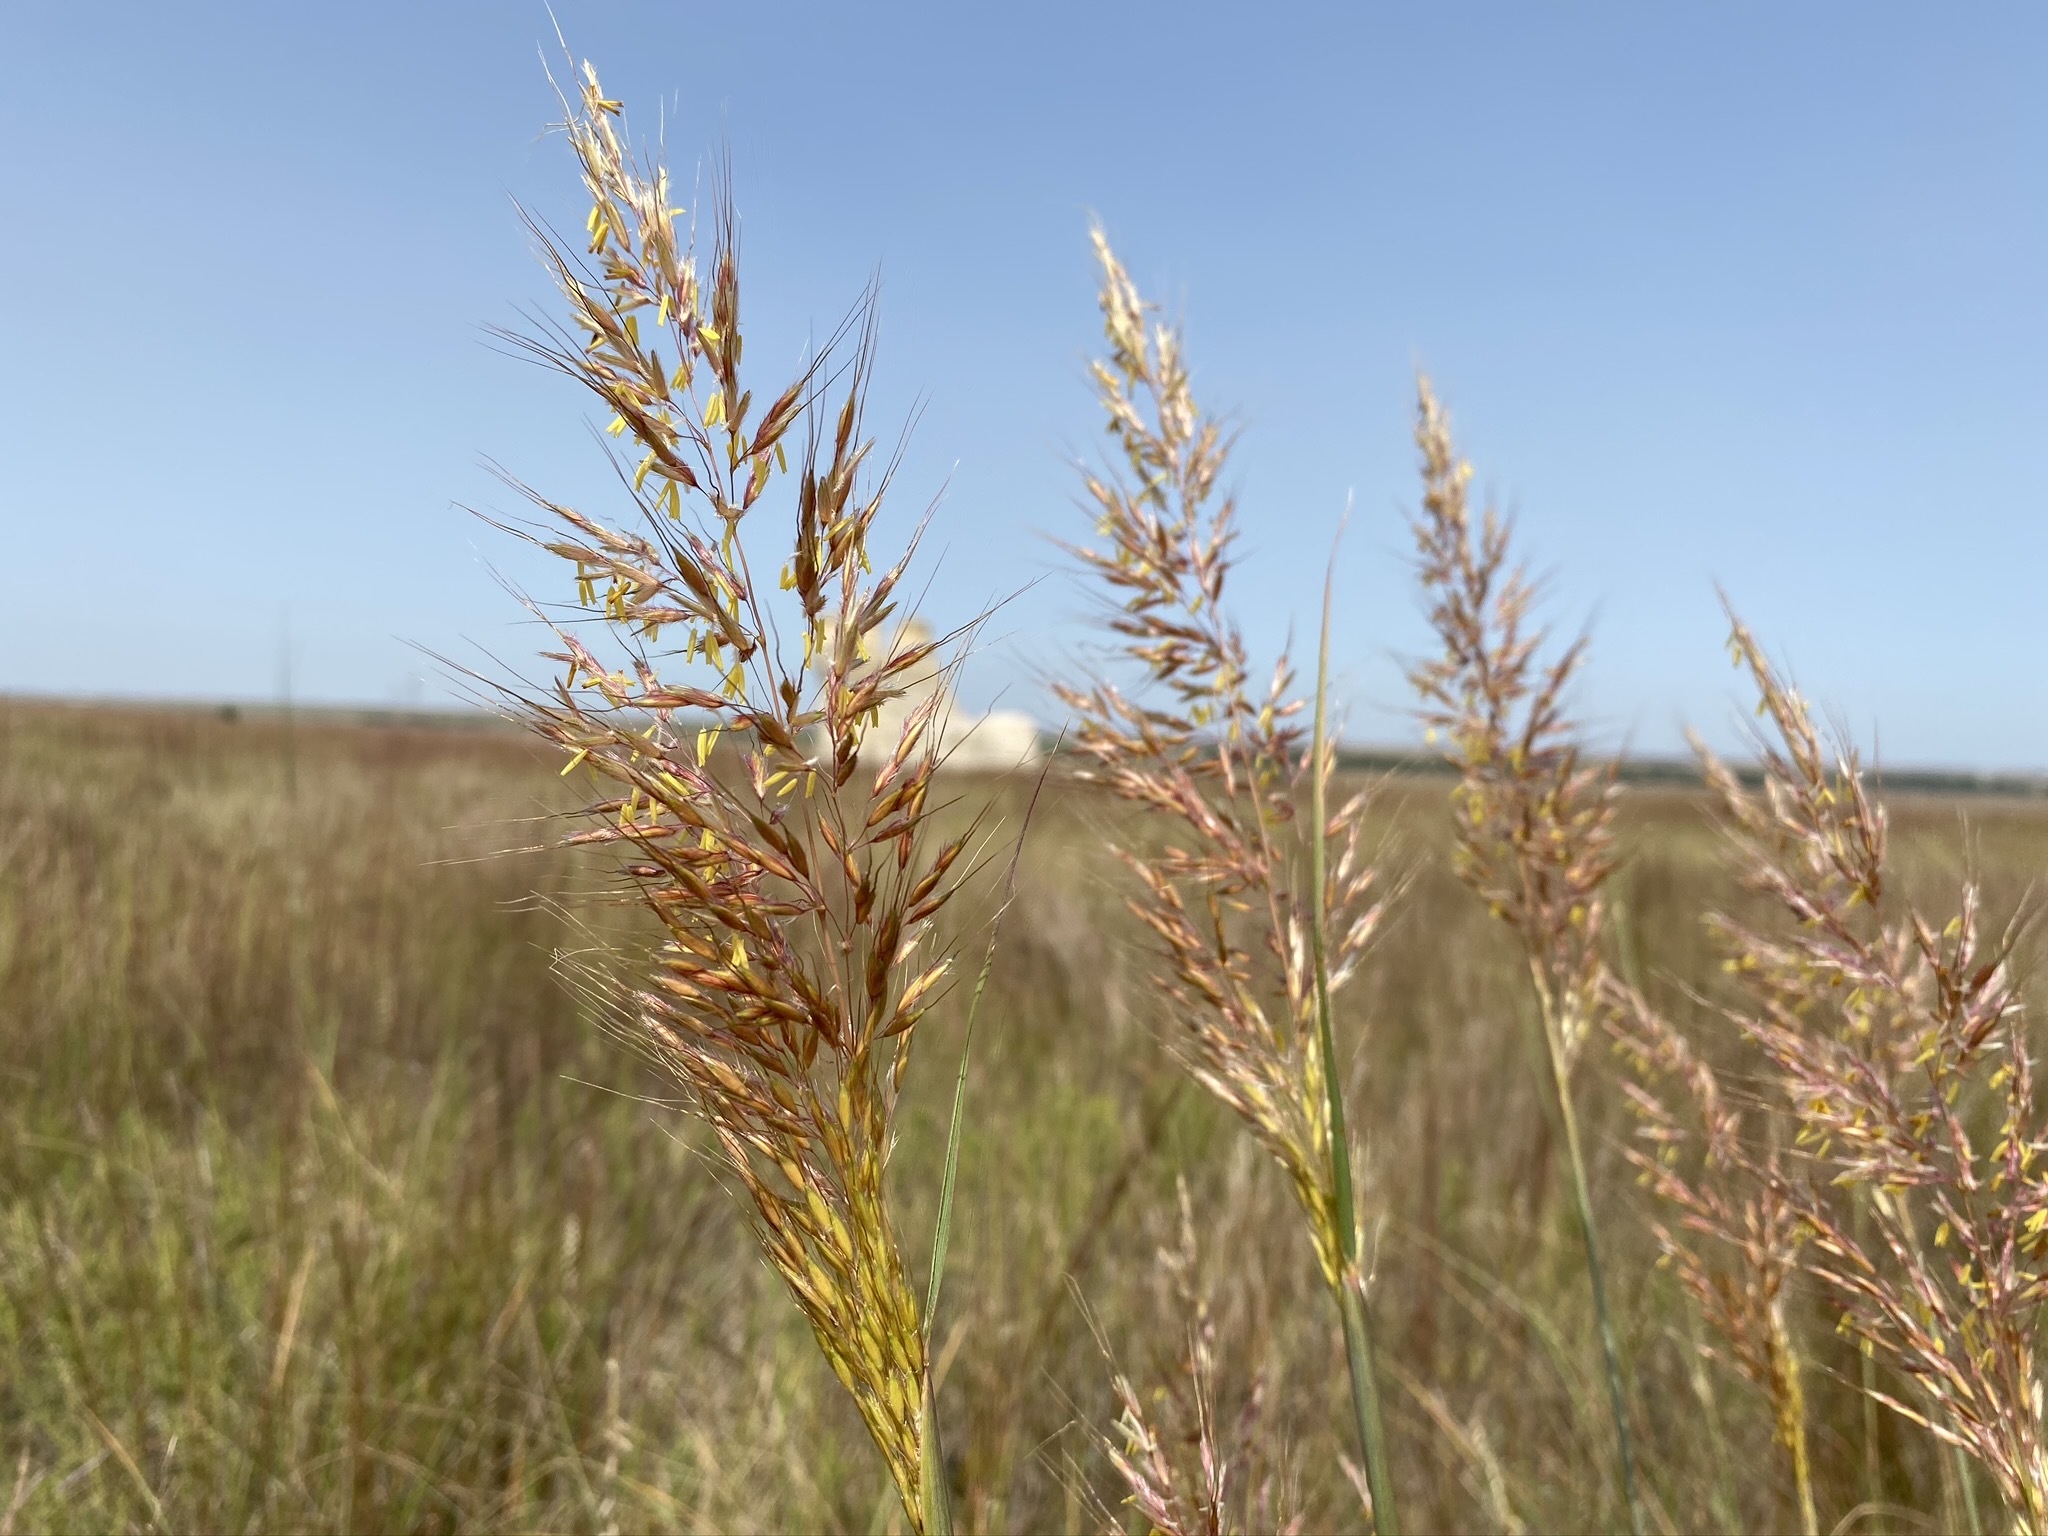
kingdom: Plantae
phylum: Tracheophyta
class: Liliopsida
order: Poales
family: Poaceae
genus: Sorghastrum
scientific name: Sorghastrum nutans
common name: Indian grass
